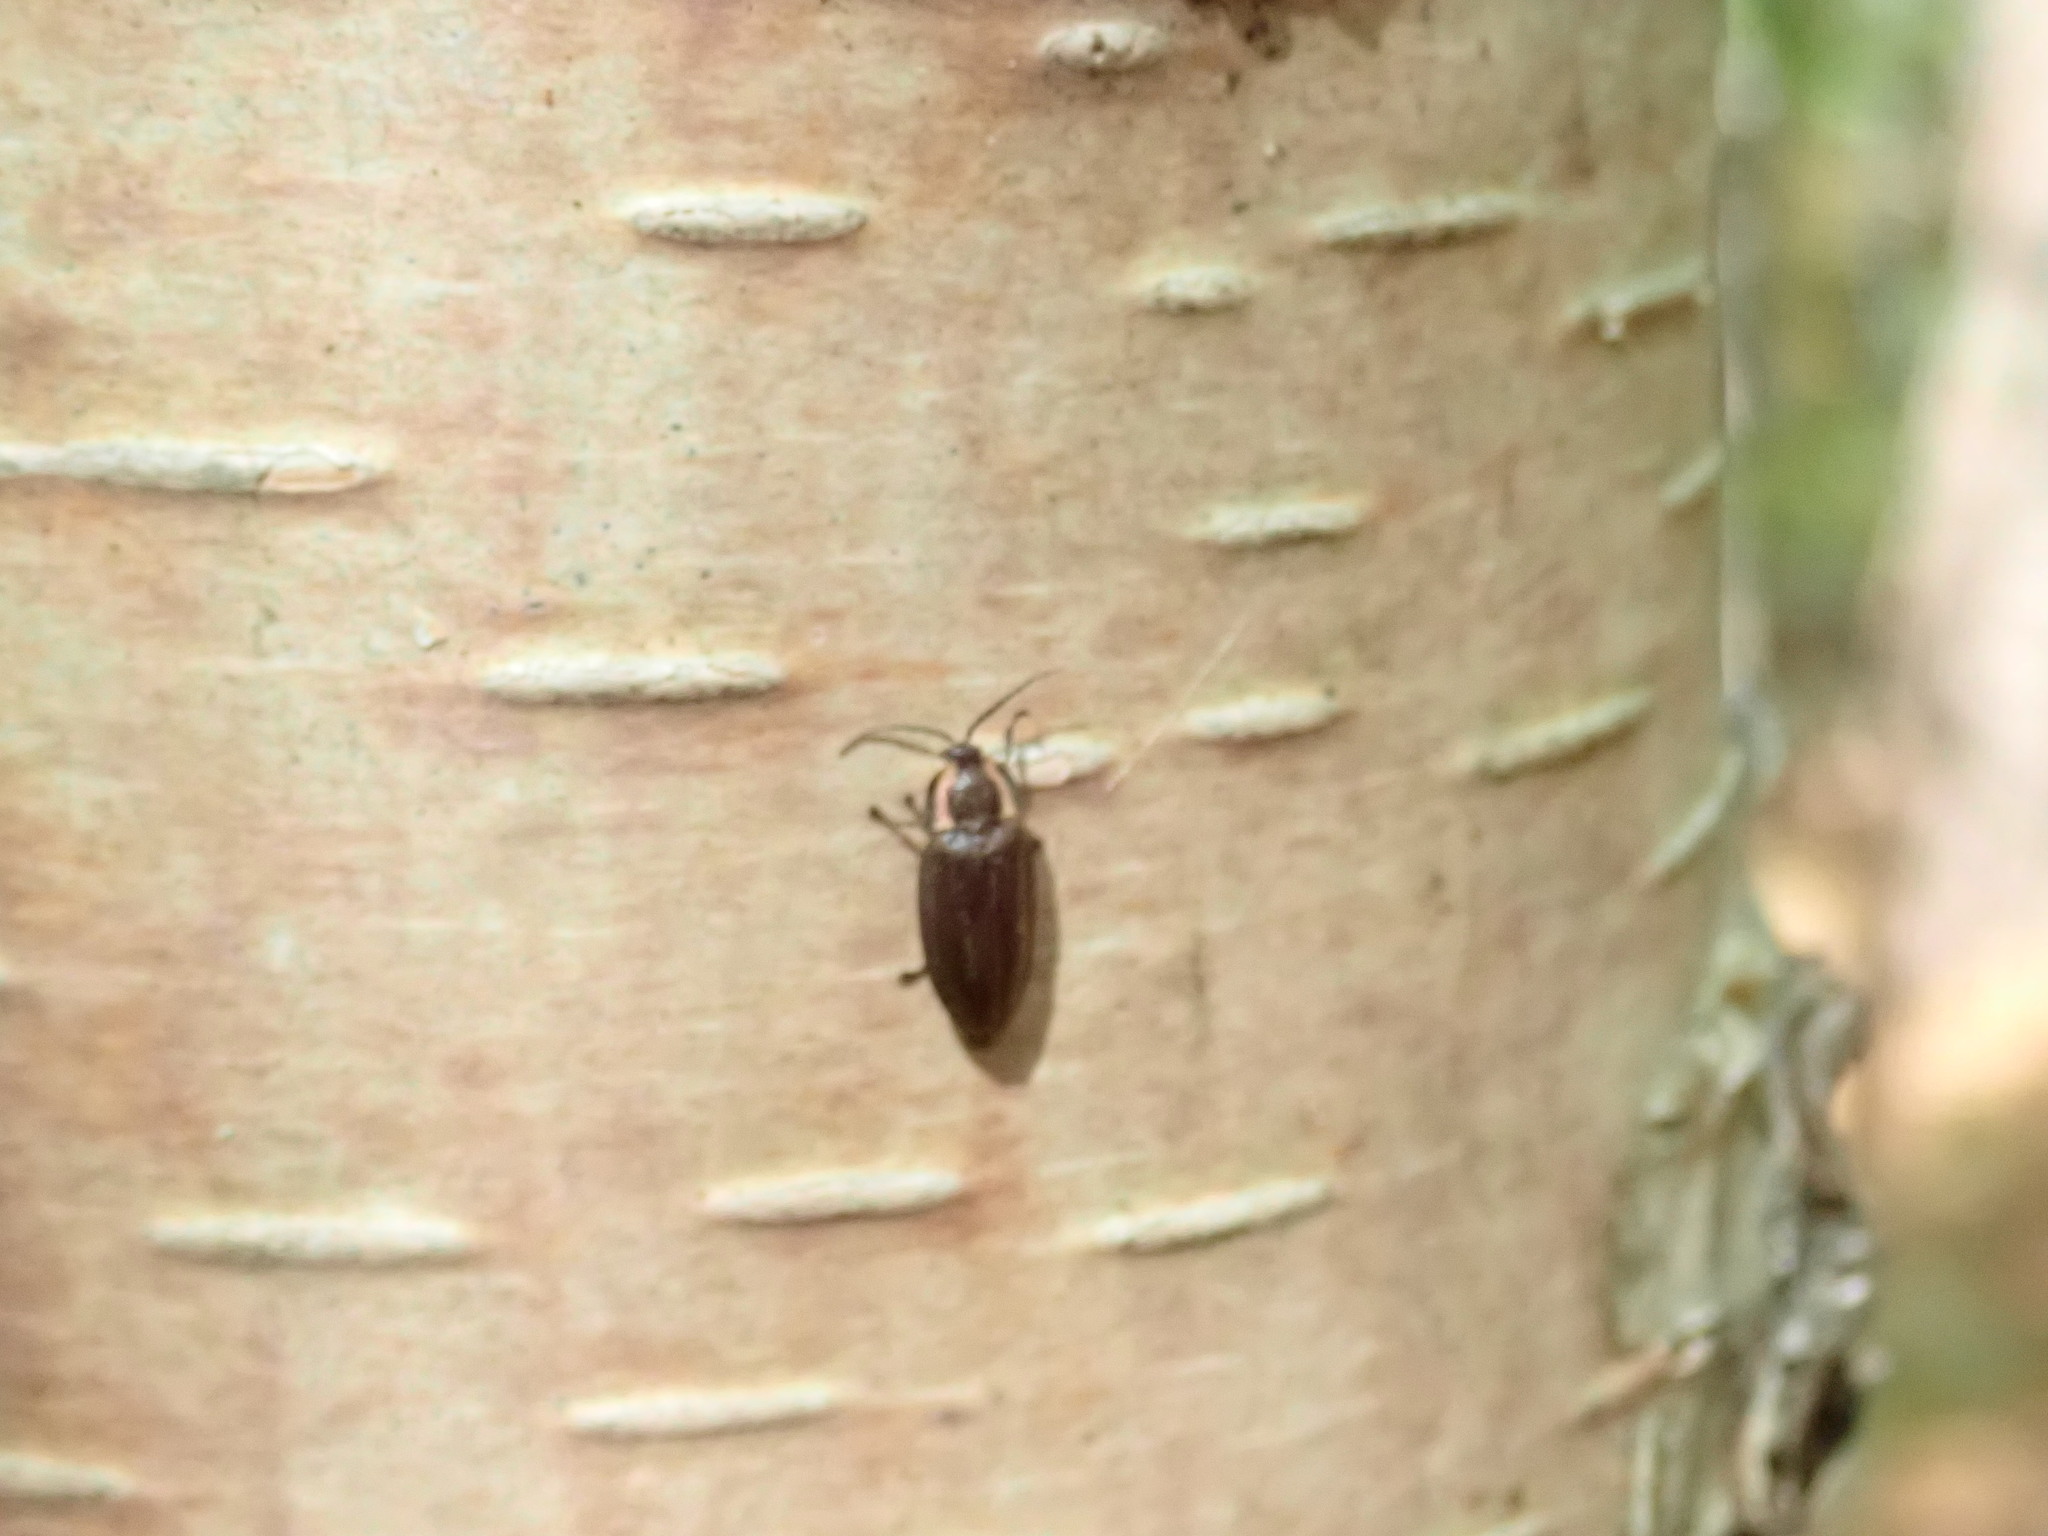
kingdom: Animalia
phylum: Arthropoda
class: Insecta
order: Coleoptera
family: Lampyridae
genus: Photinus
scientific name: Photinus corrusca
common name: Winter firefly
